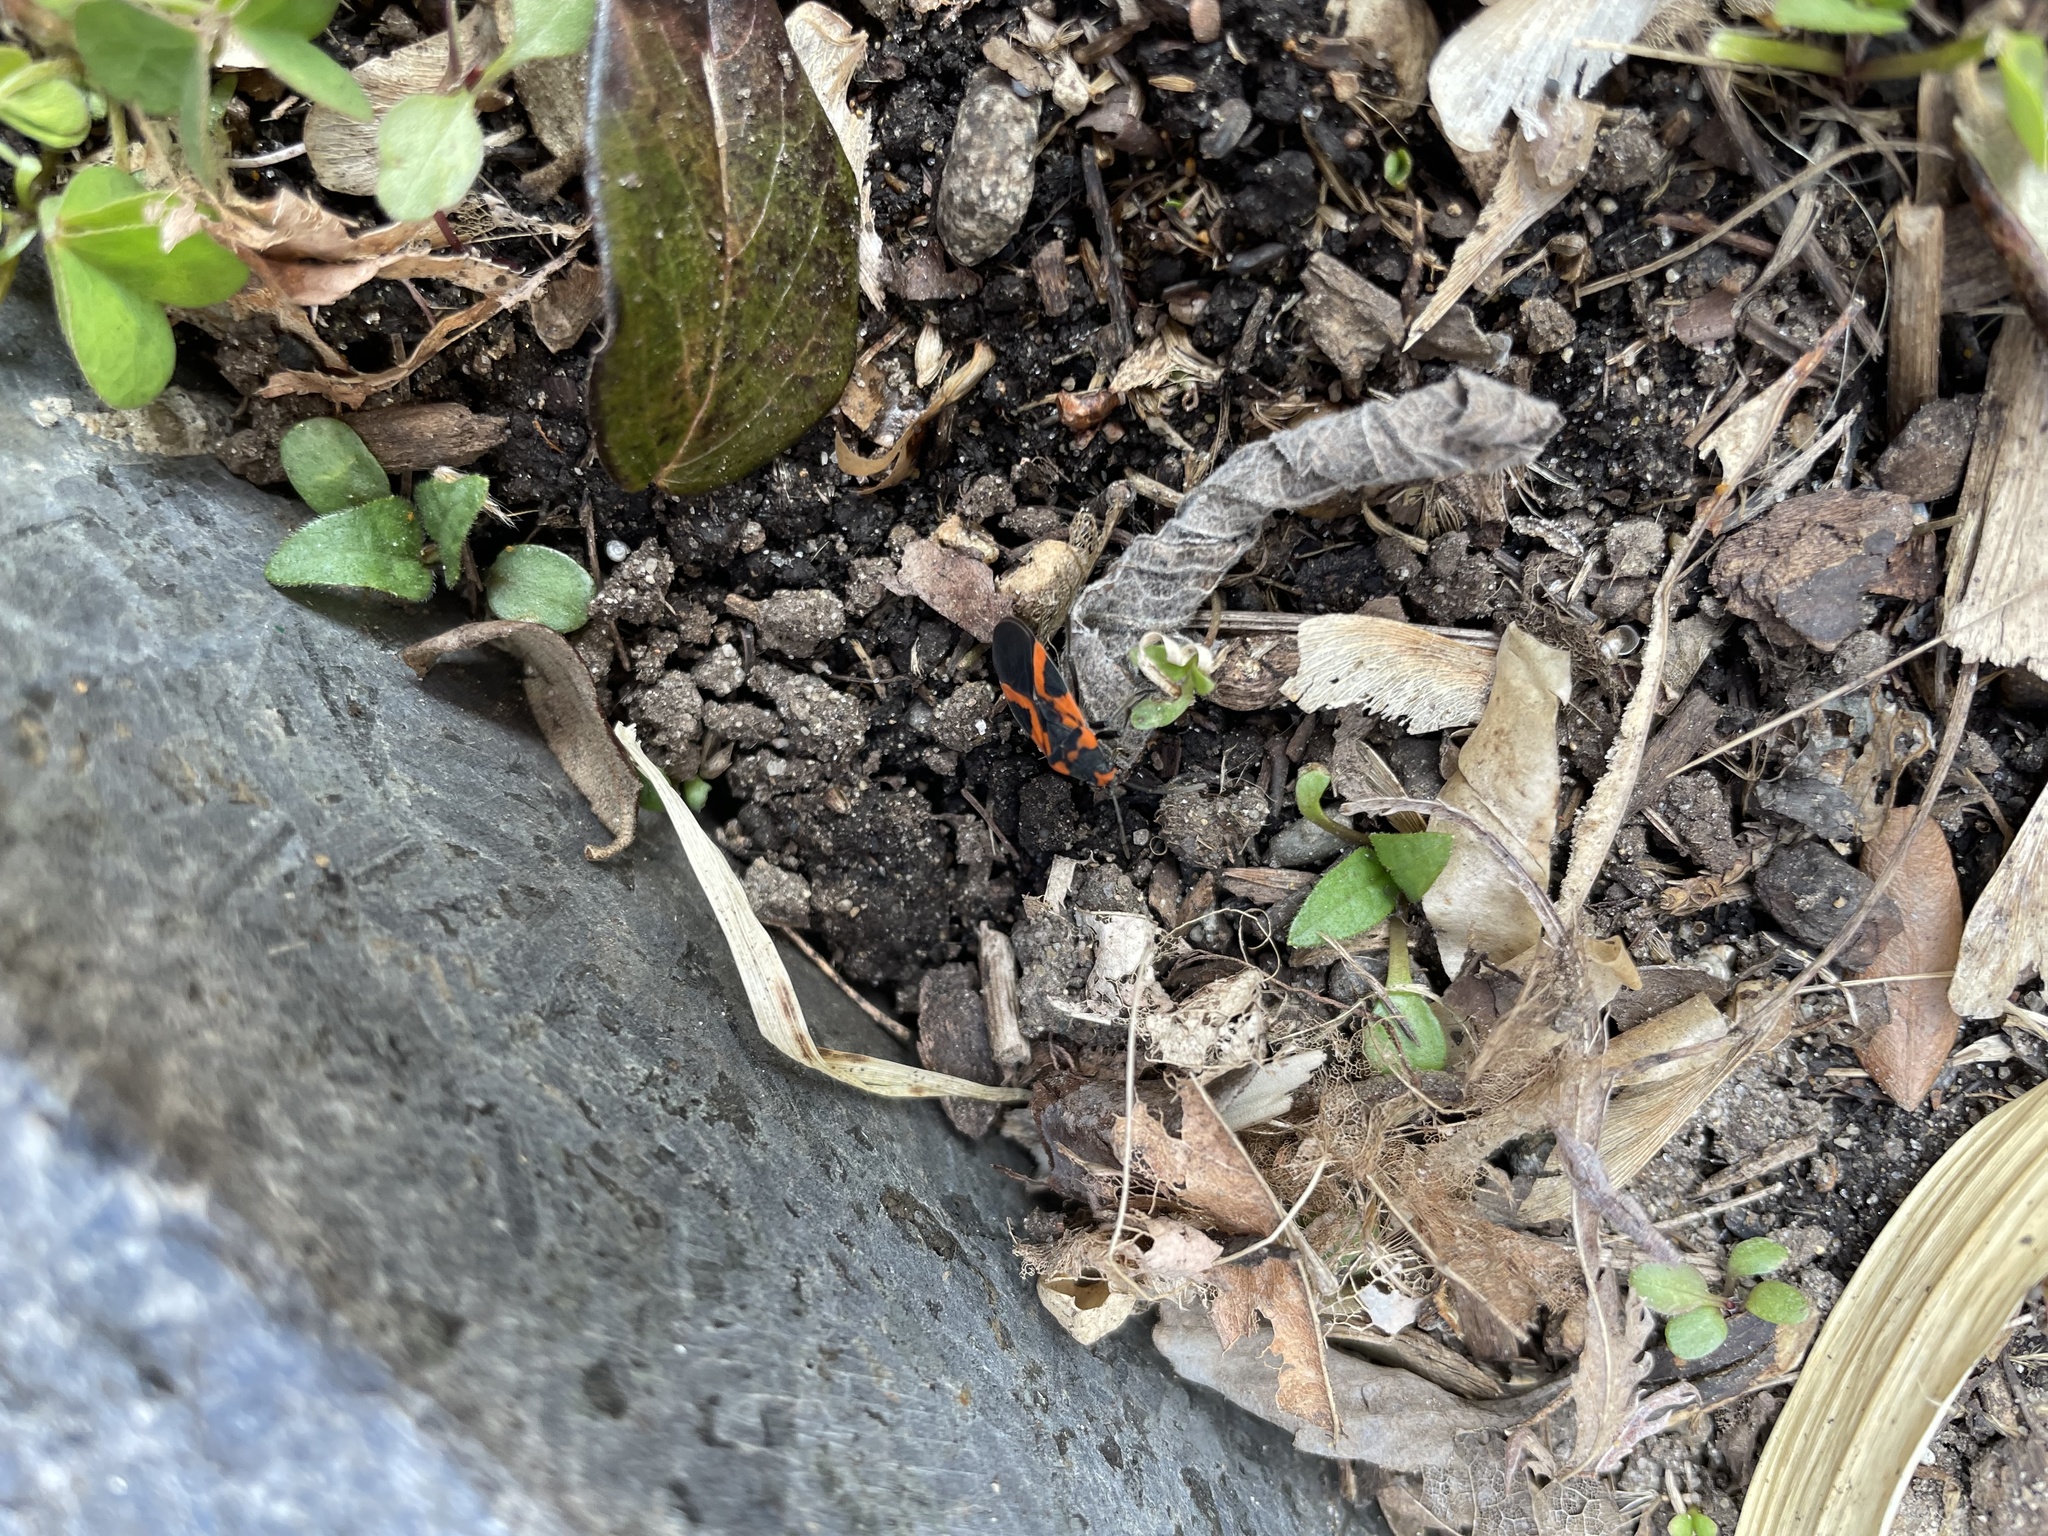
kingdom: Animalia
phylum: Arthropoda
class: Insecta
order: Hemiptera
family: Lygaeidae
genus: Lygaeus
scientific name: Lygaeus turcicus
